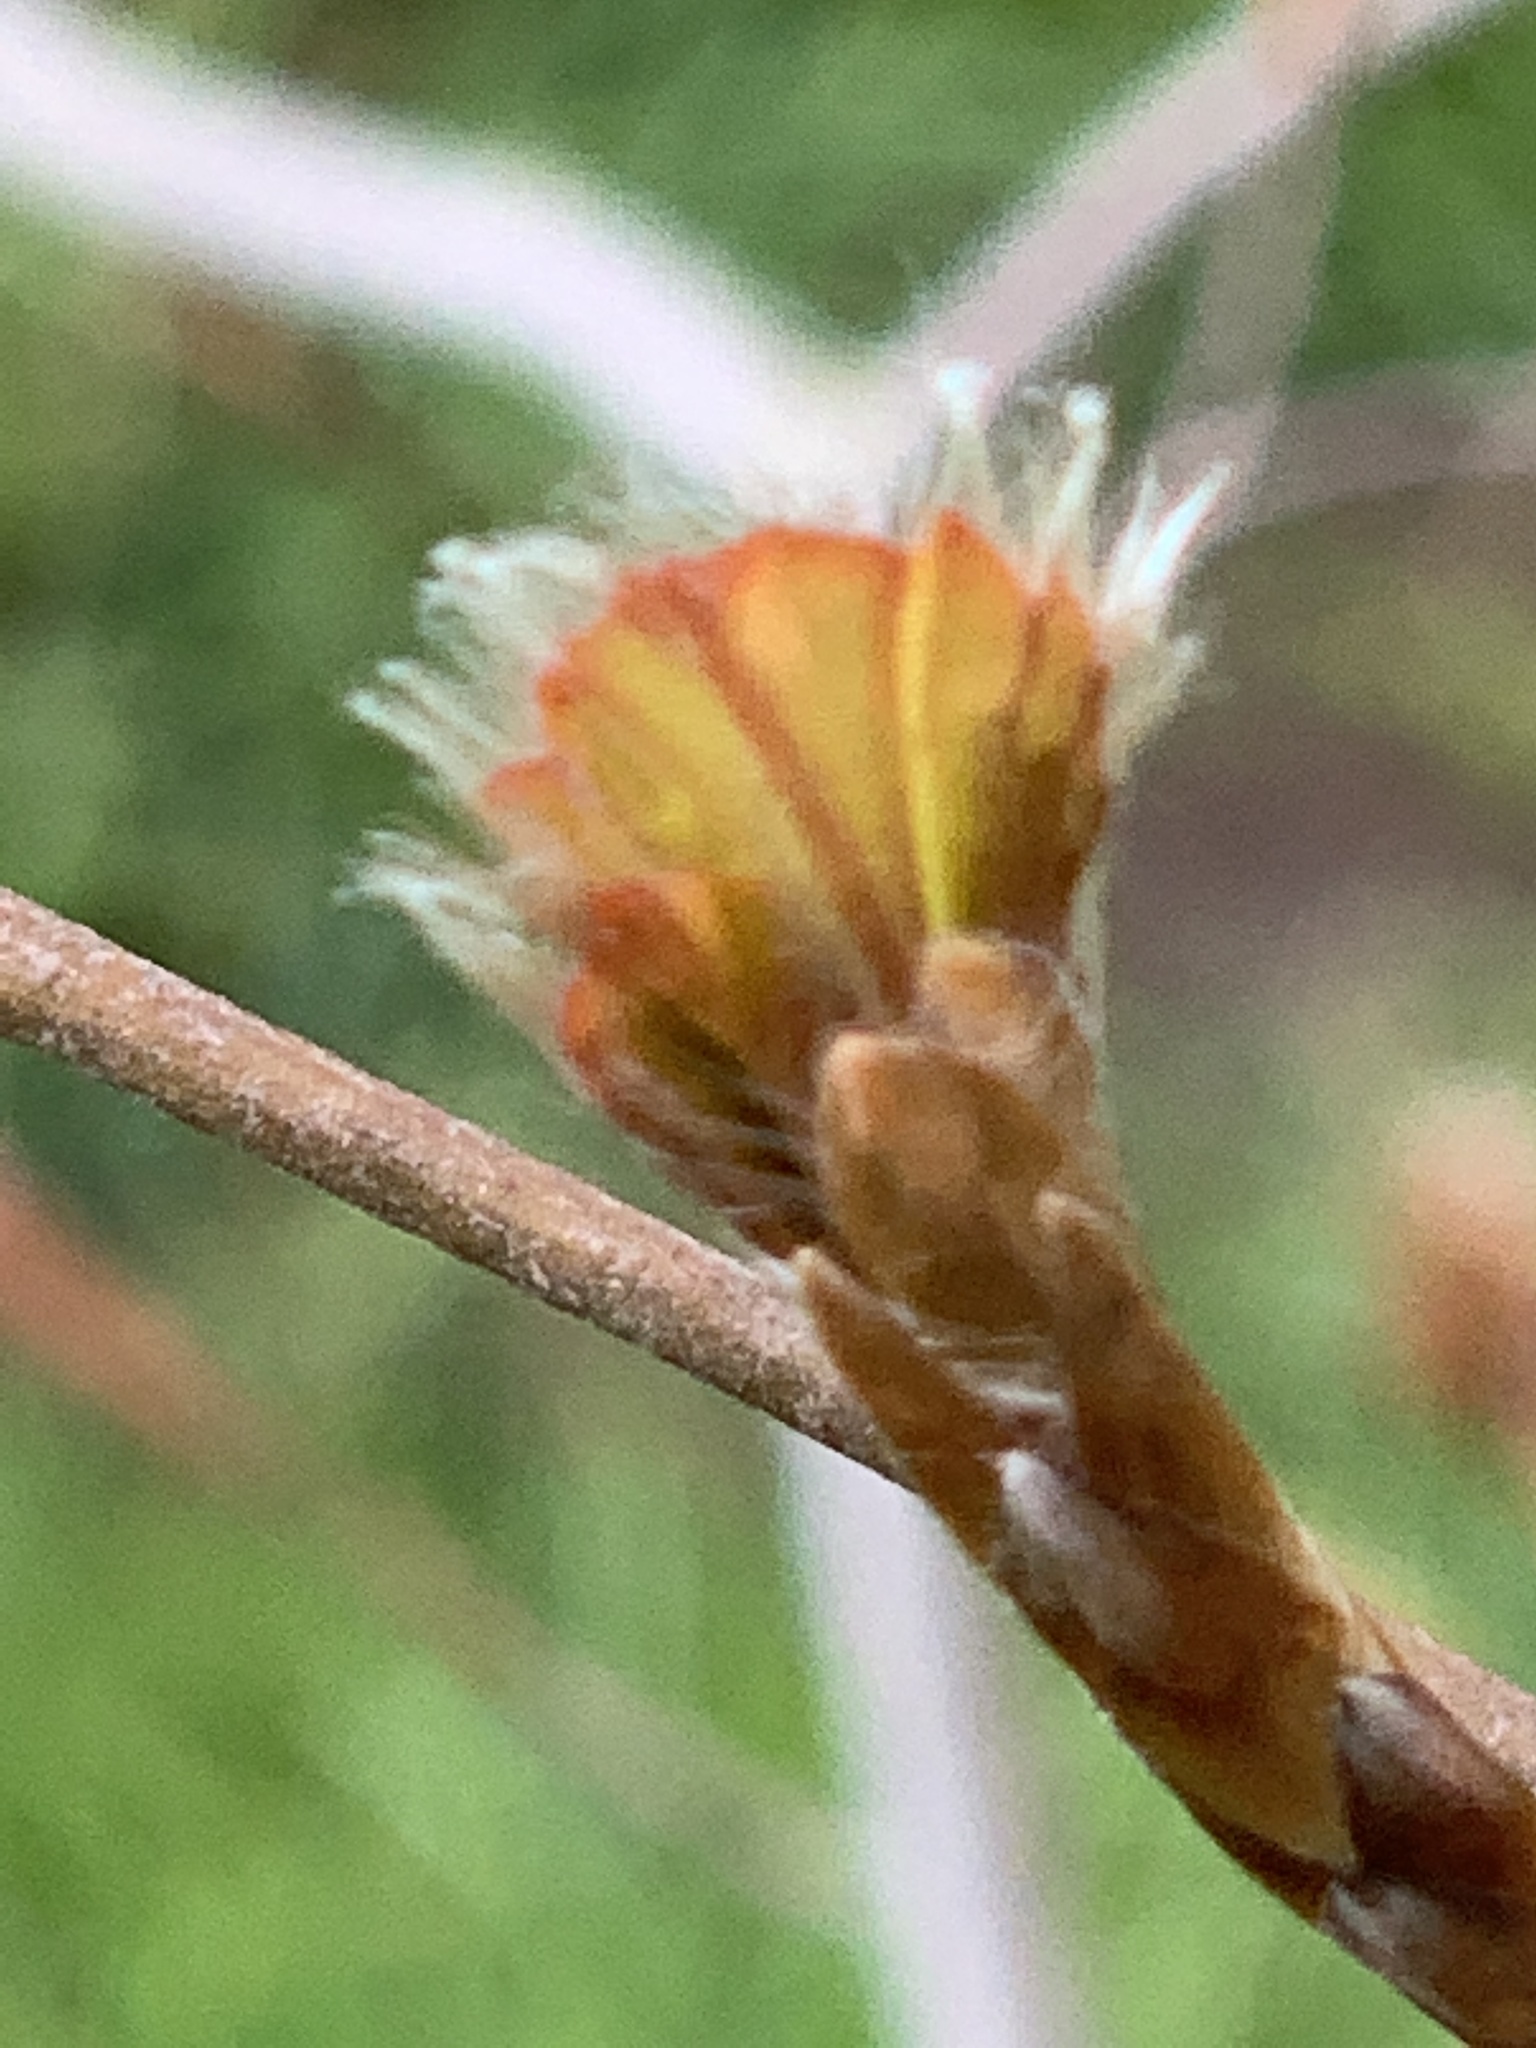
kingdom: Plantae
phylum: Tracheophyta
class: Magnoliopsida
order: Fagales
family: Fagaceae
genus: Fagus
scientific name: Fagus sylvatica
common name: Beech
